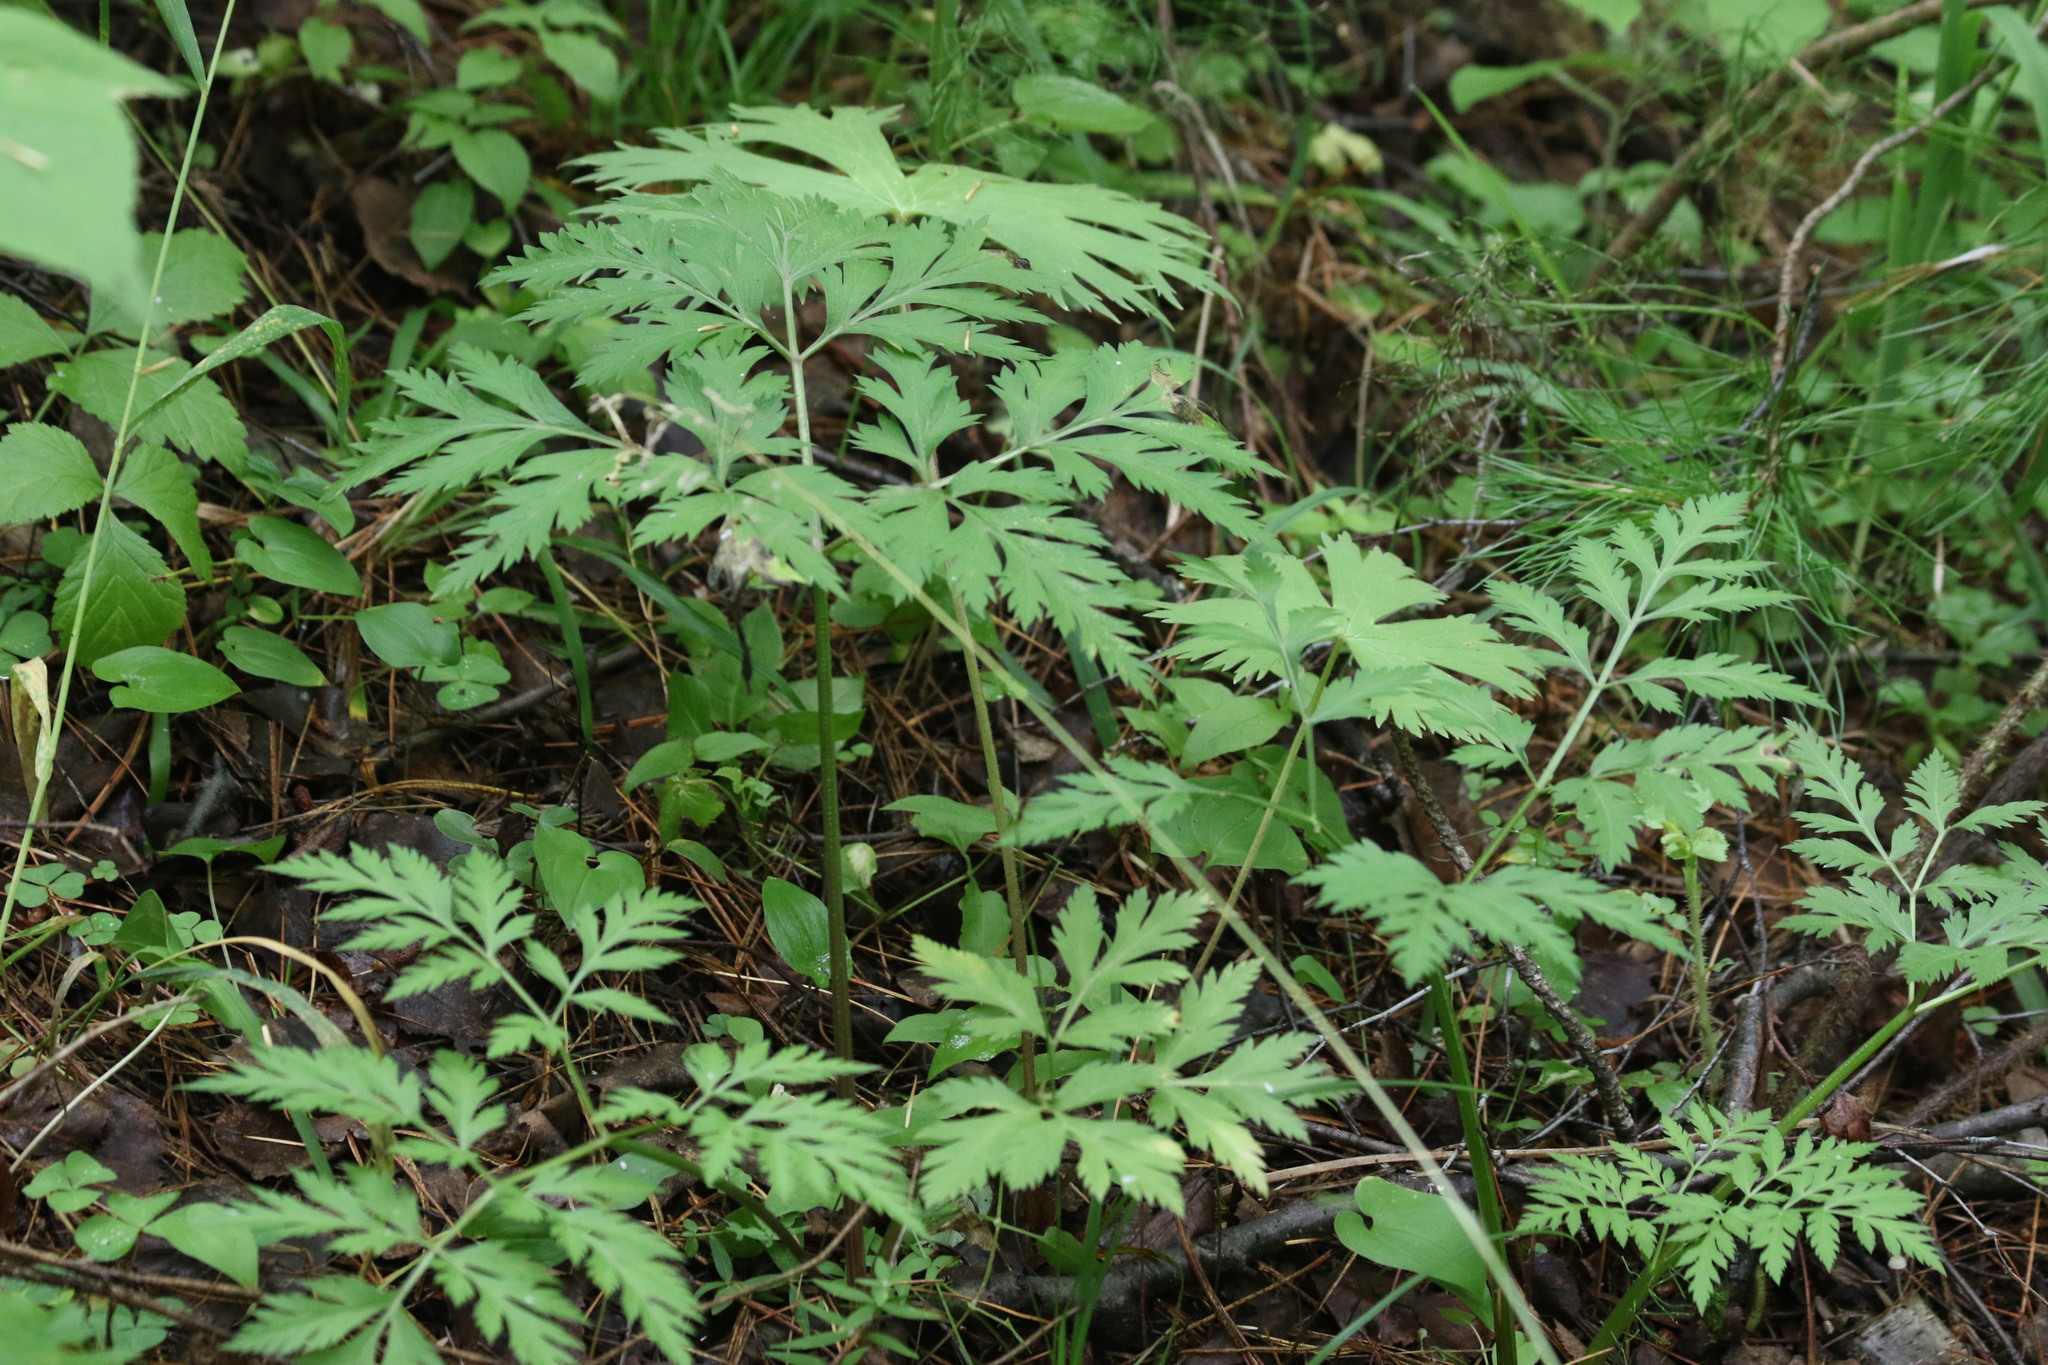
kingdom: Plantae
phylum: Tracheophyta
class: Magnoliopsida
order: Apiales
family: Apiaceae
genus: Pleurospermum
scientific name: Pleurospermum uralense
